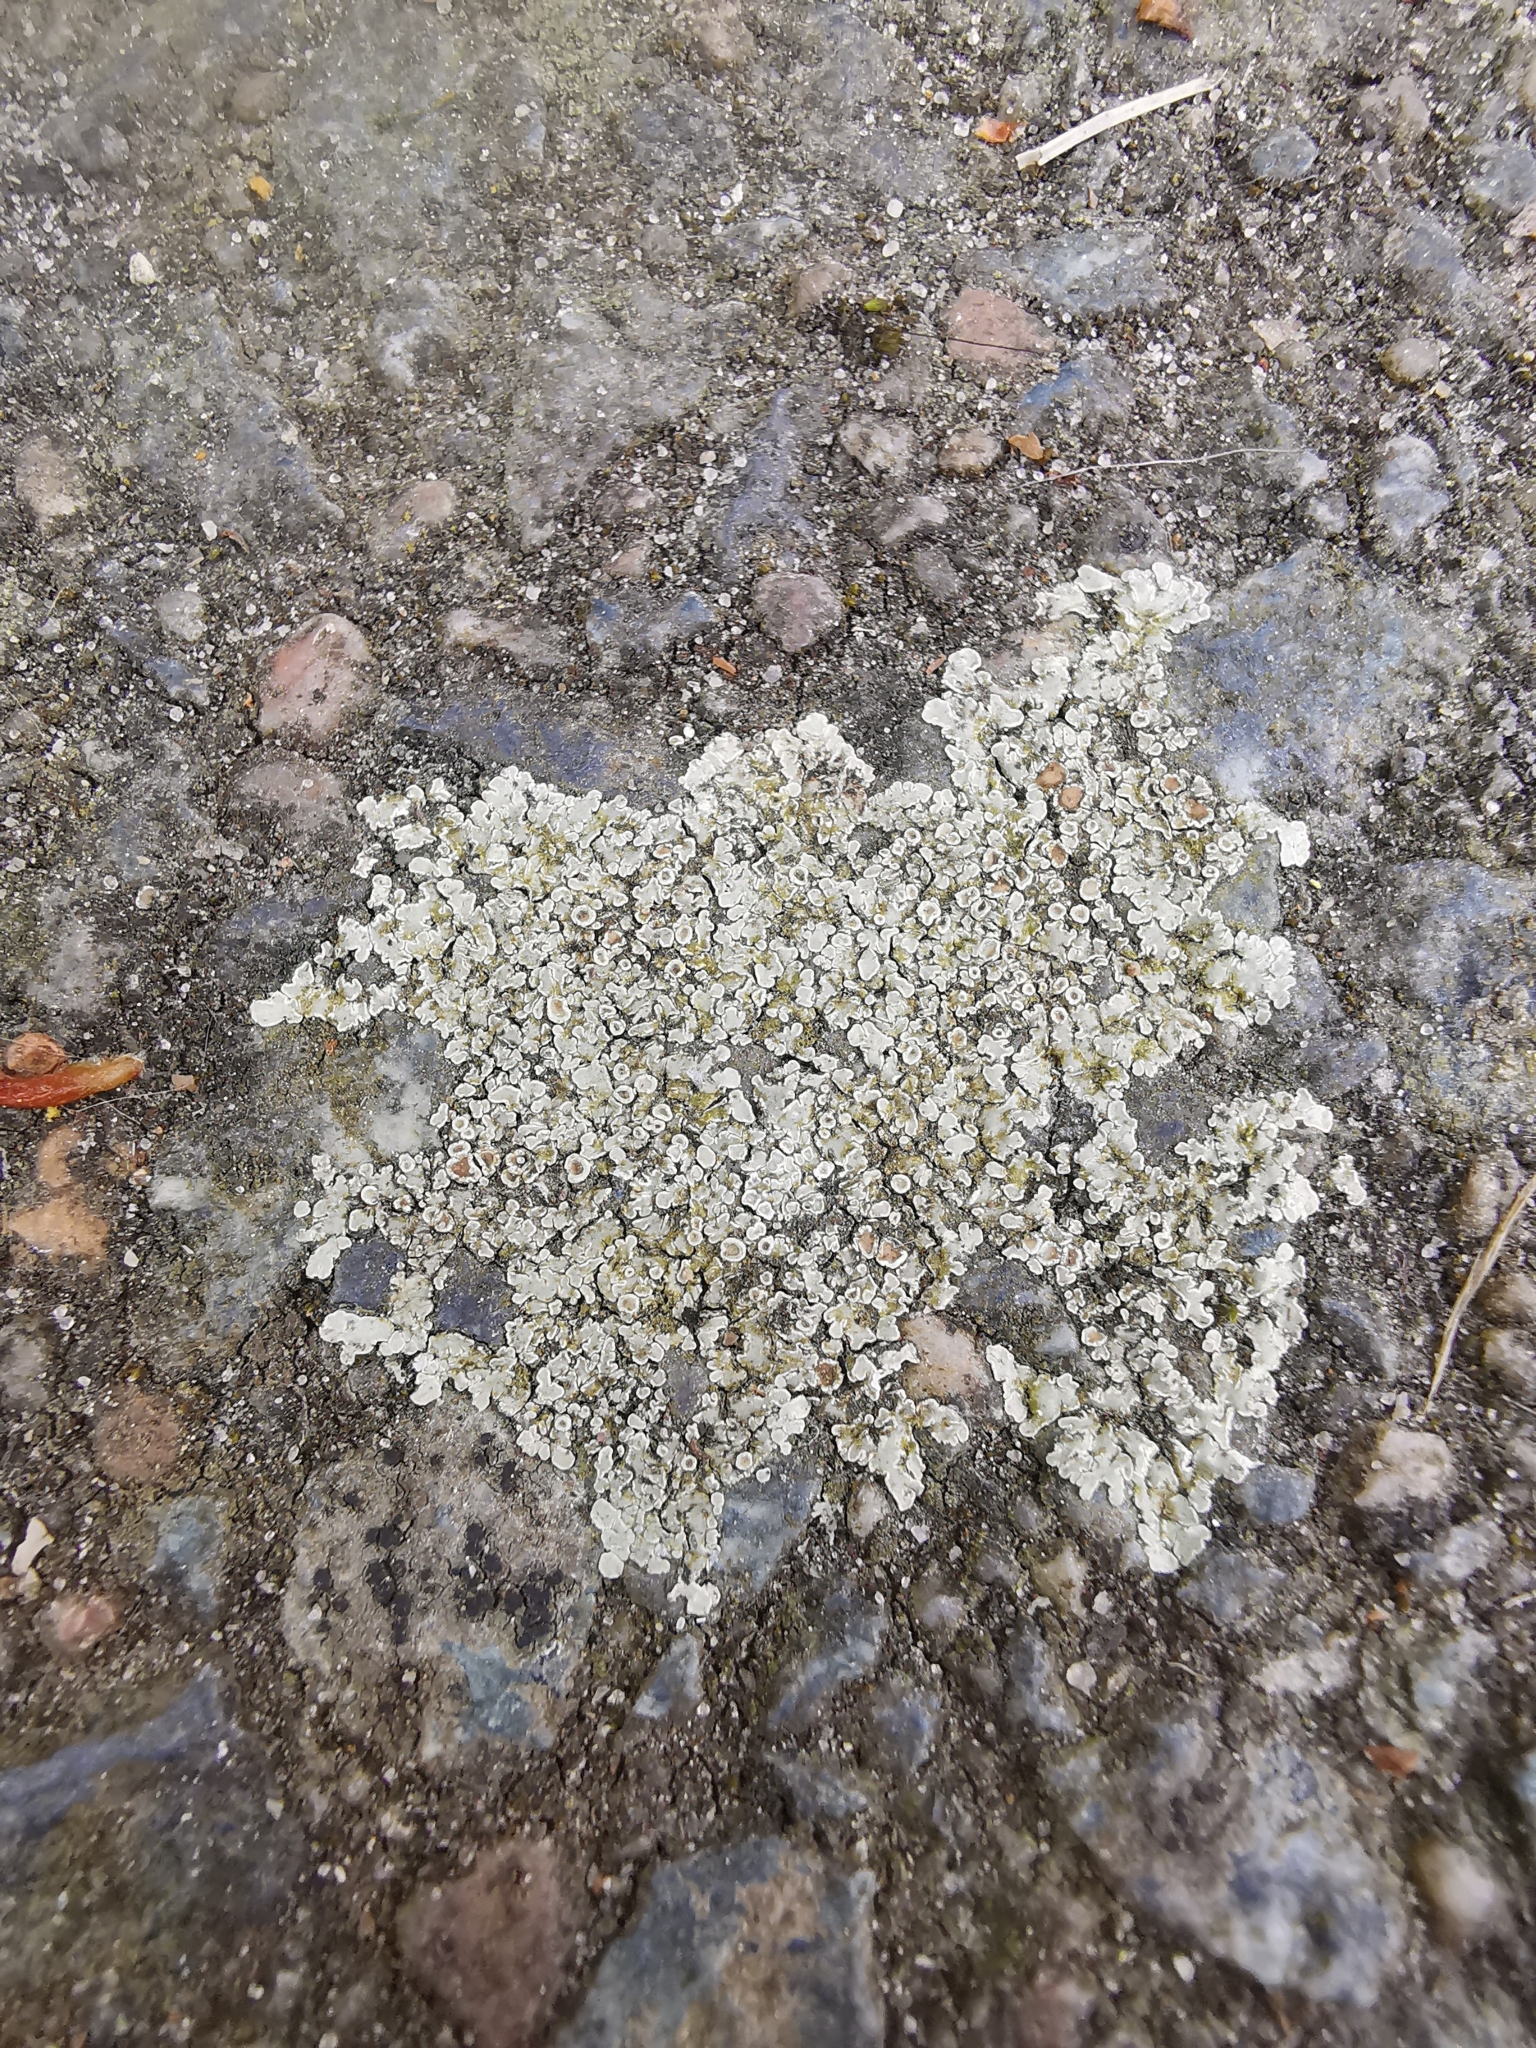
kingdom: Fungi
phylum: Ascomycota
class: Lecanoromycetes
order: Lecanorales
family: Lecanoraceae
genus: Protoparmeliopsis
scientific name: Protoparmeliopsis muralis
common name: Stonewall rim lichen
